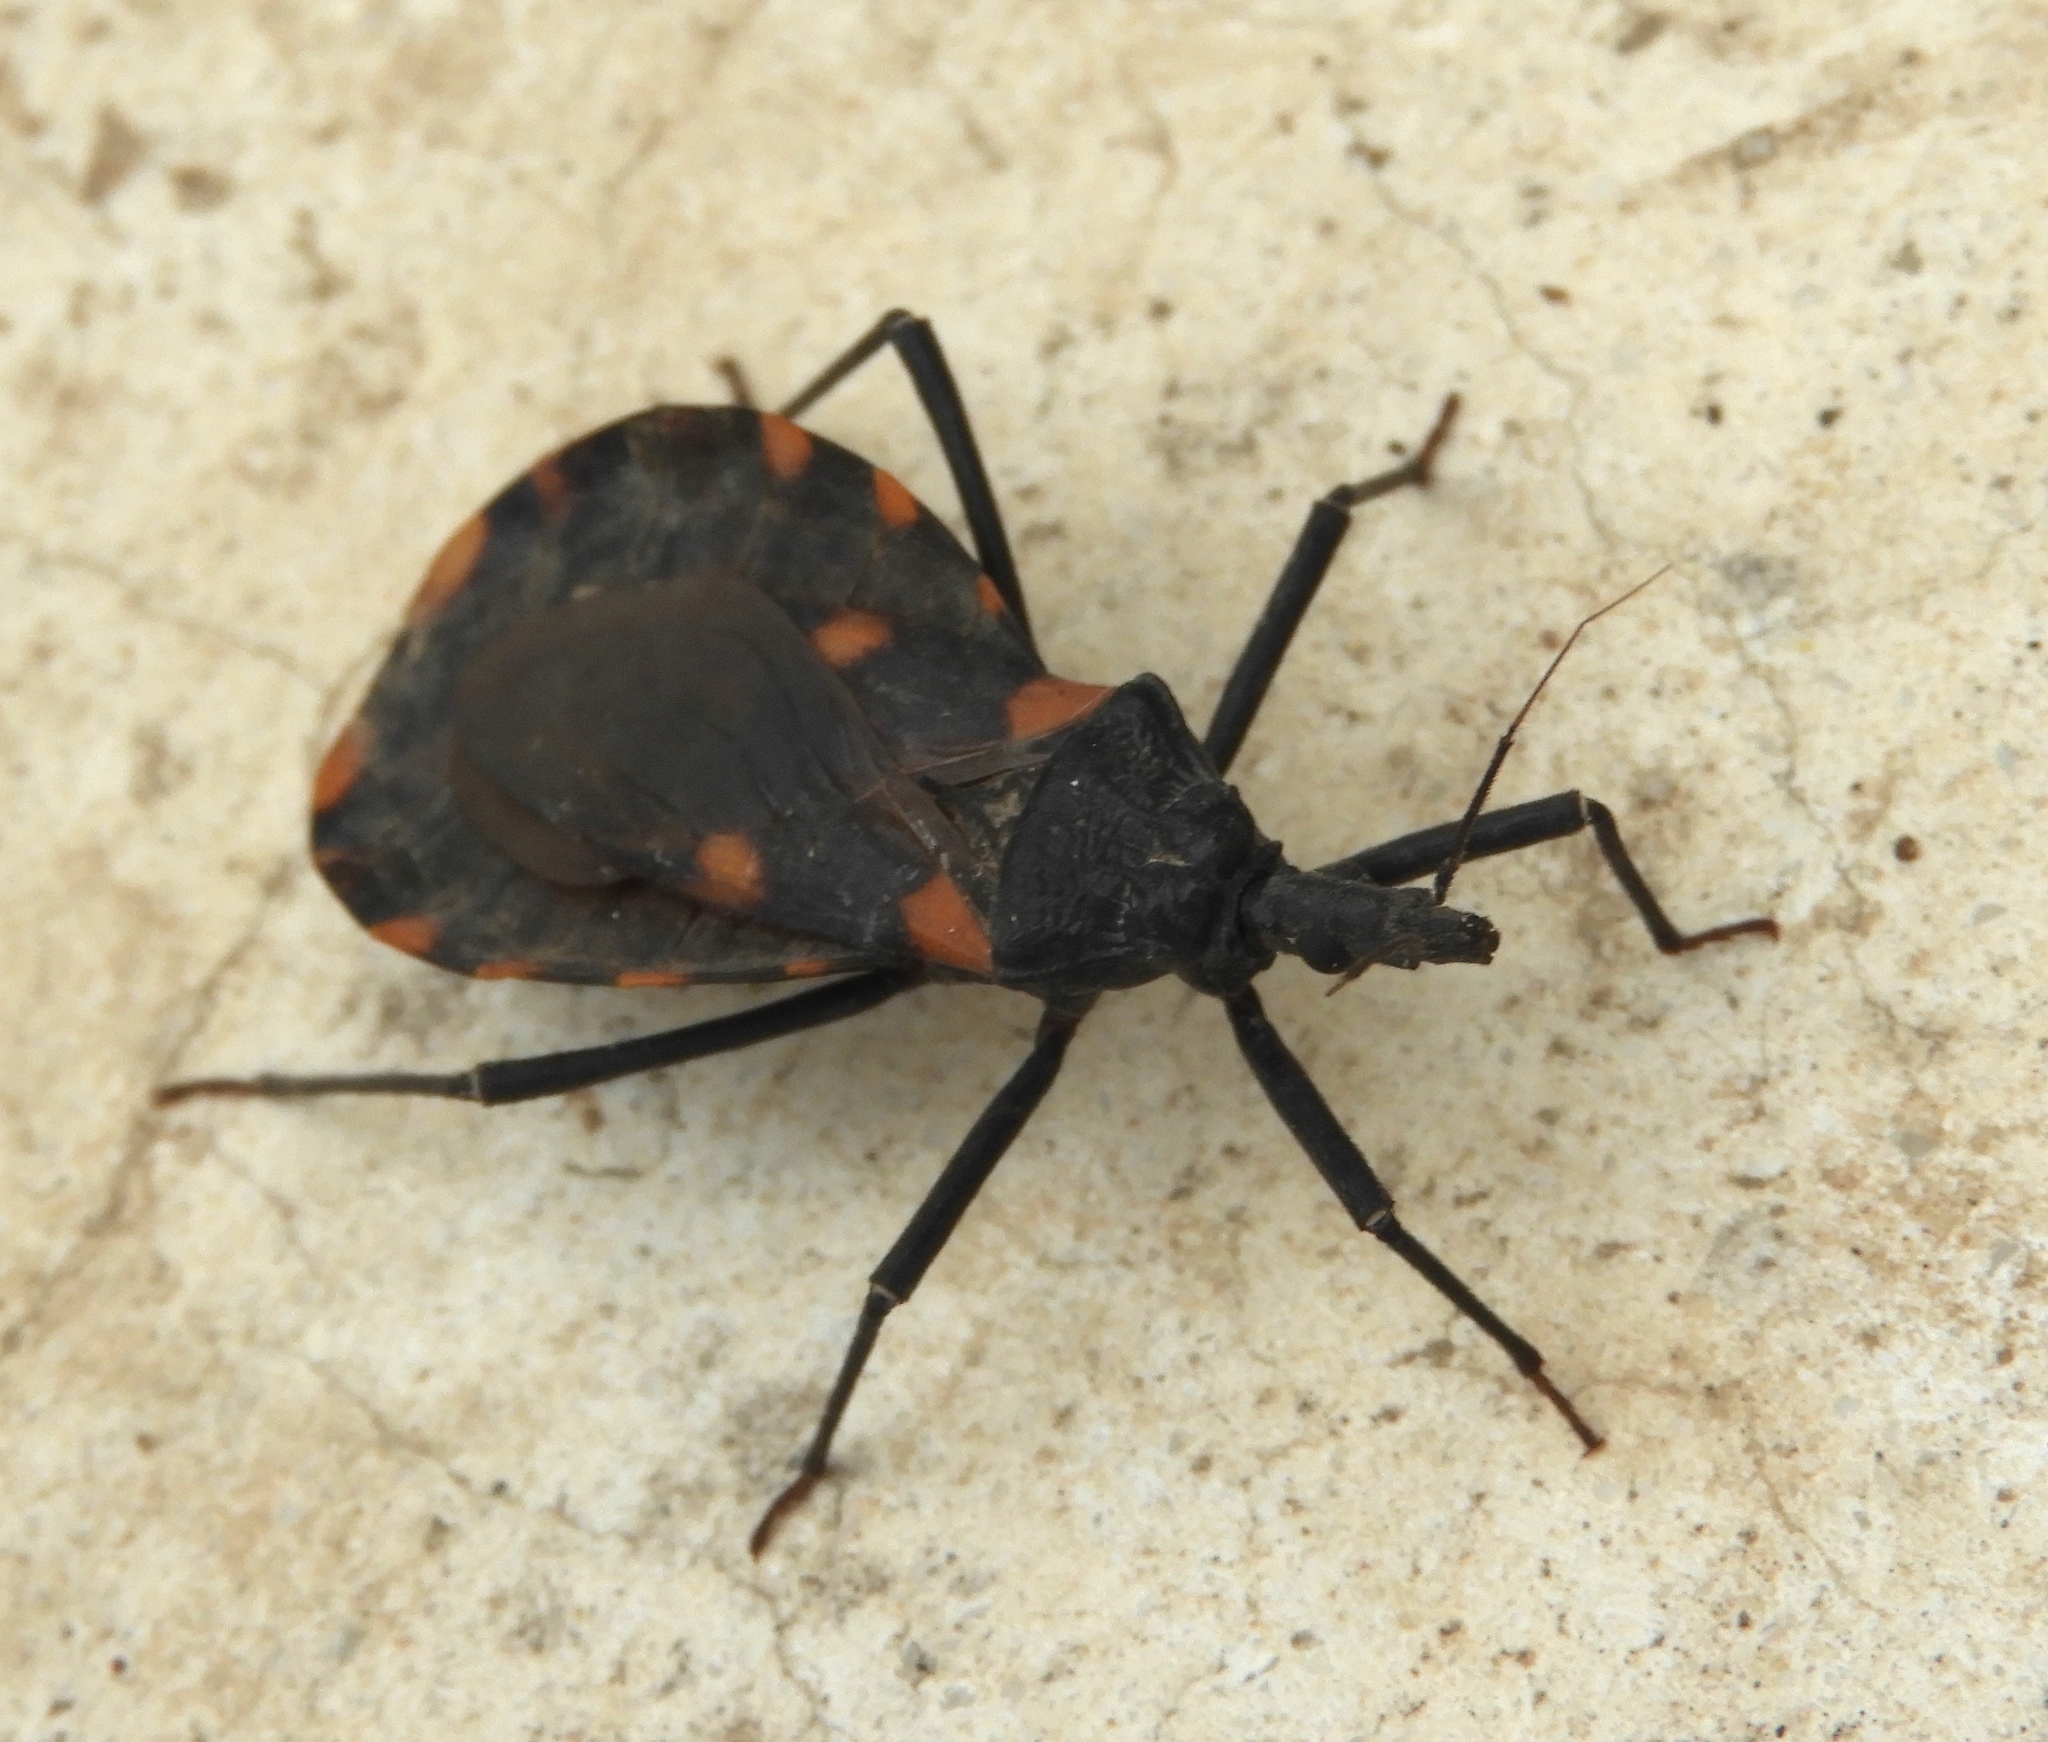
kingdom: Animalia
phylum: Arthropoda
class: Insecta
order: Hemiptera
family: Reduviidae
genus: Meccus
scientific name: Meccus longipennis
